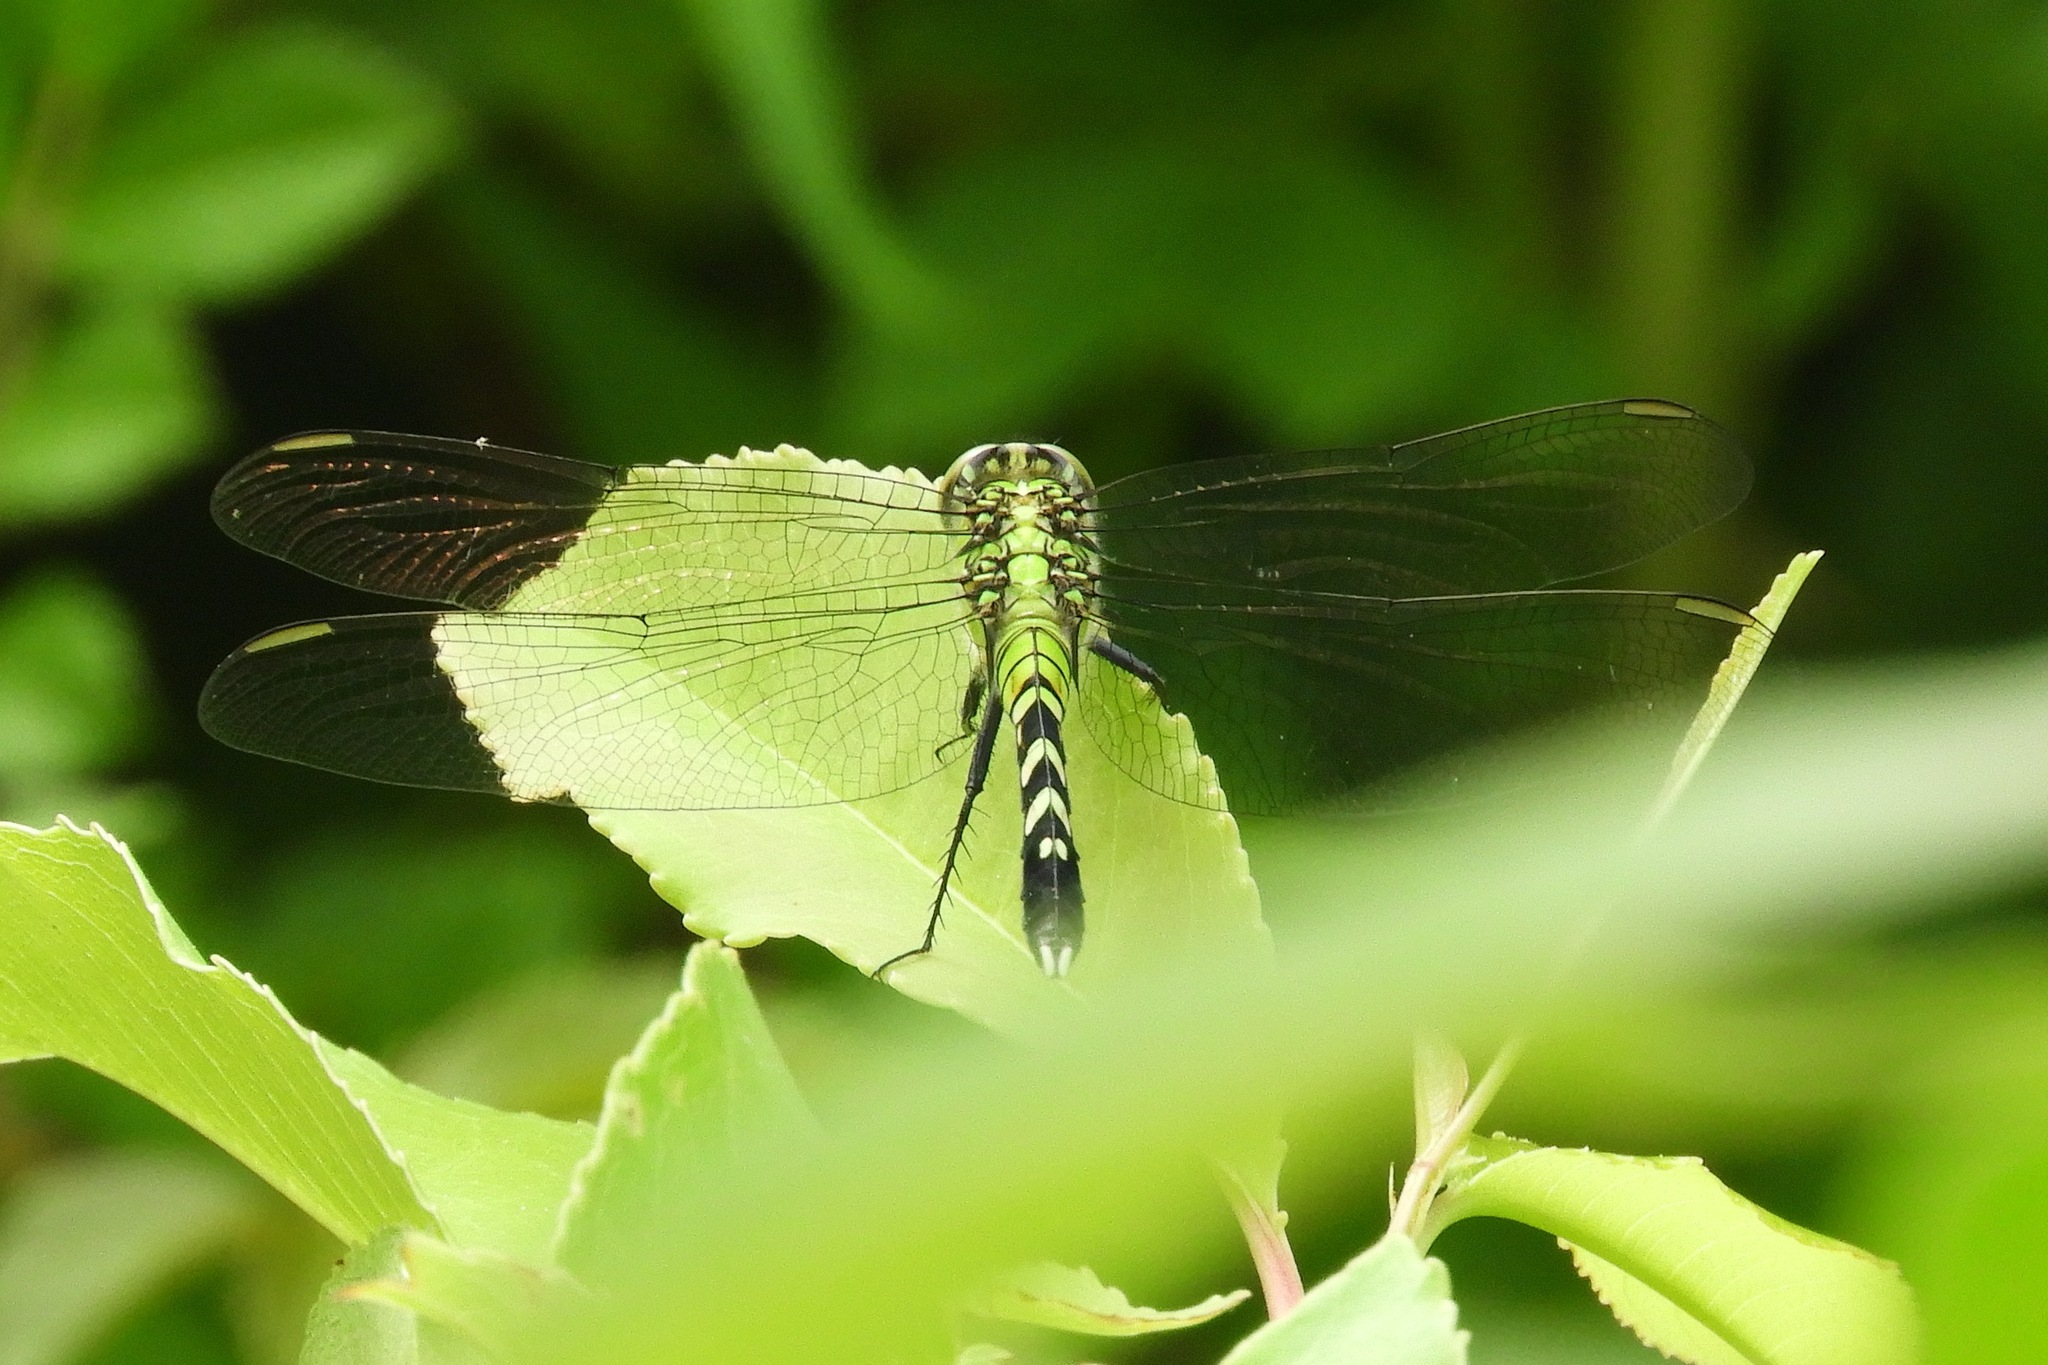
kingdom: Animalia
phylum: Arthropoda
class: Insecta
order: Odonata
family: Libellulidae
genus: Erythemis
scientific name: Erythemis simplicicollis
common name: Eastern pondhawk
